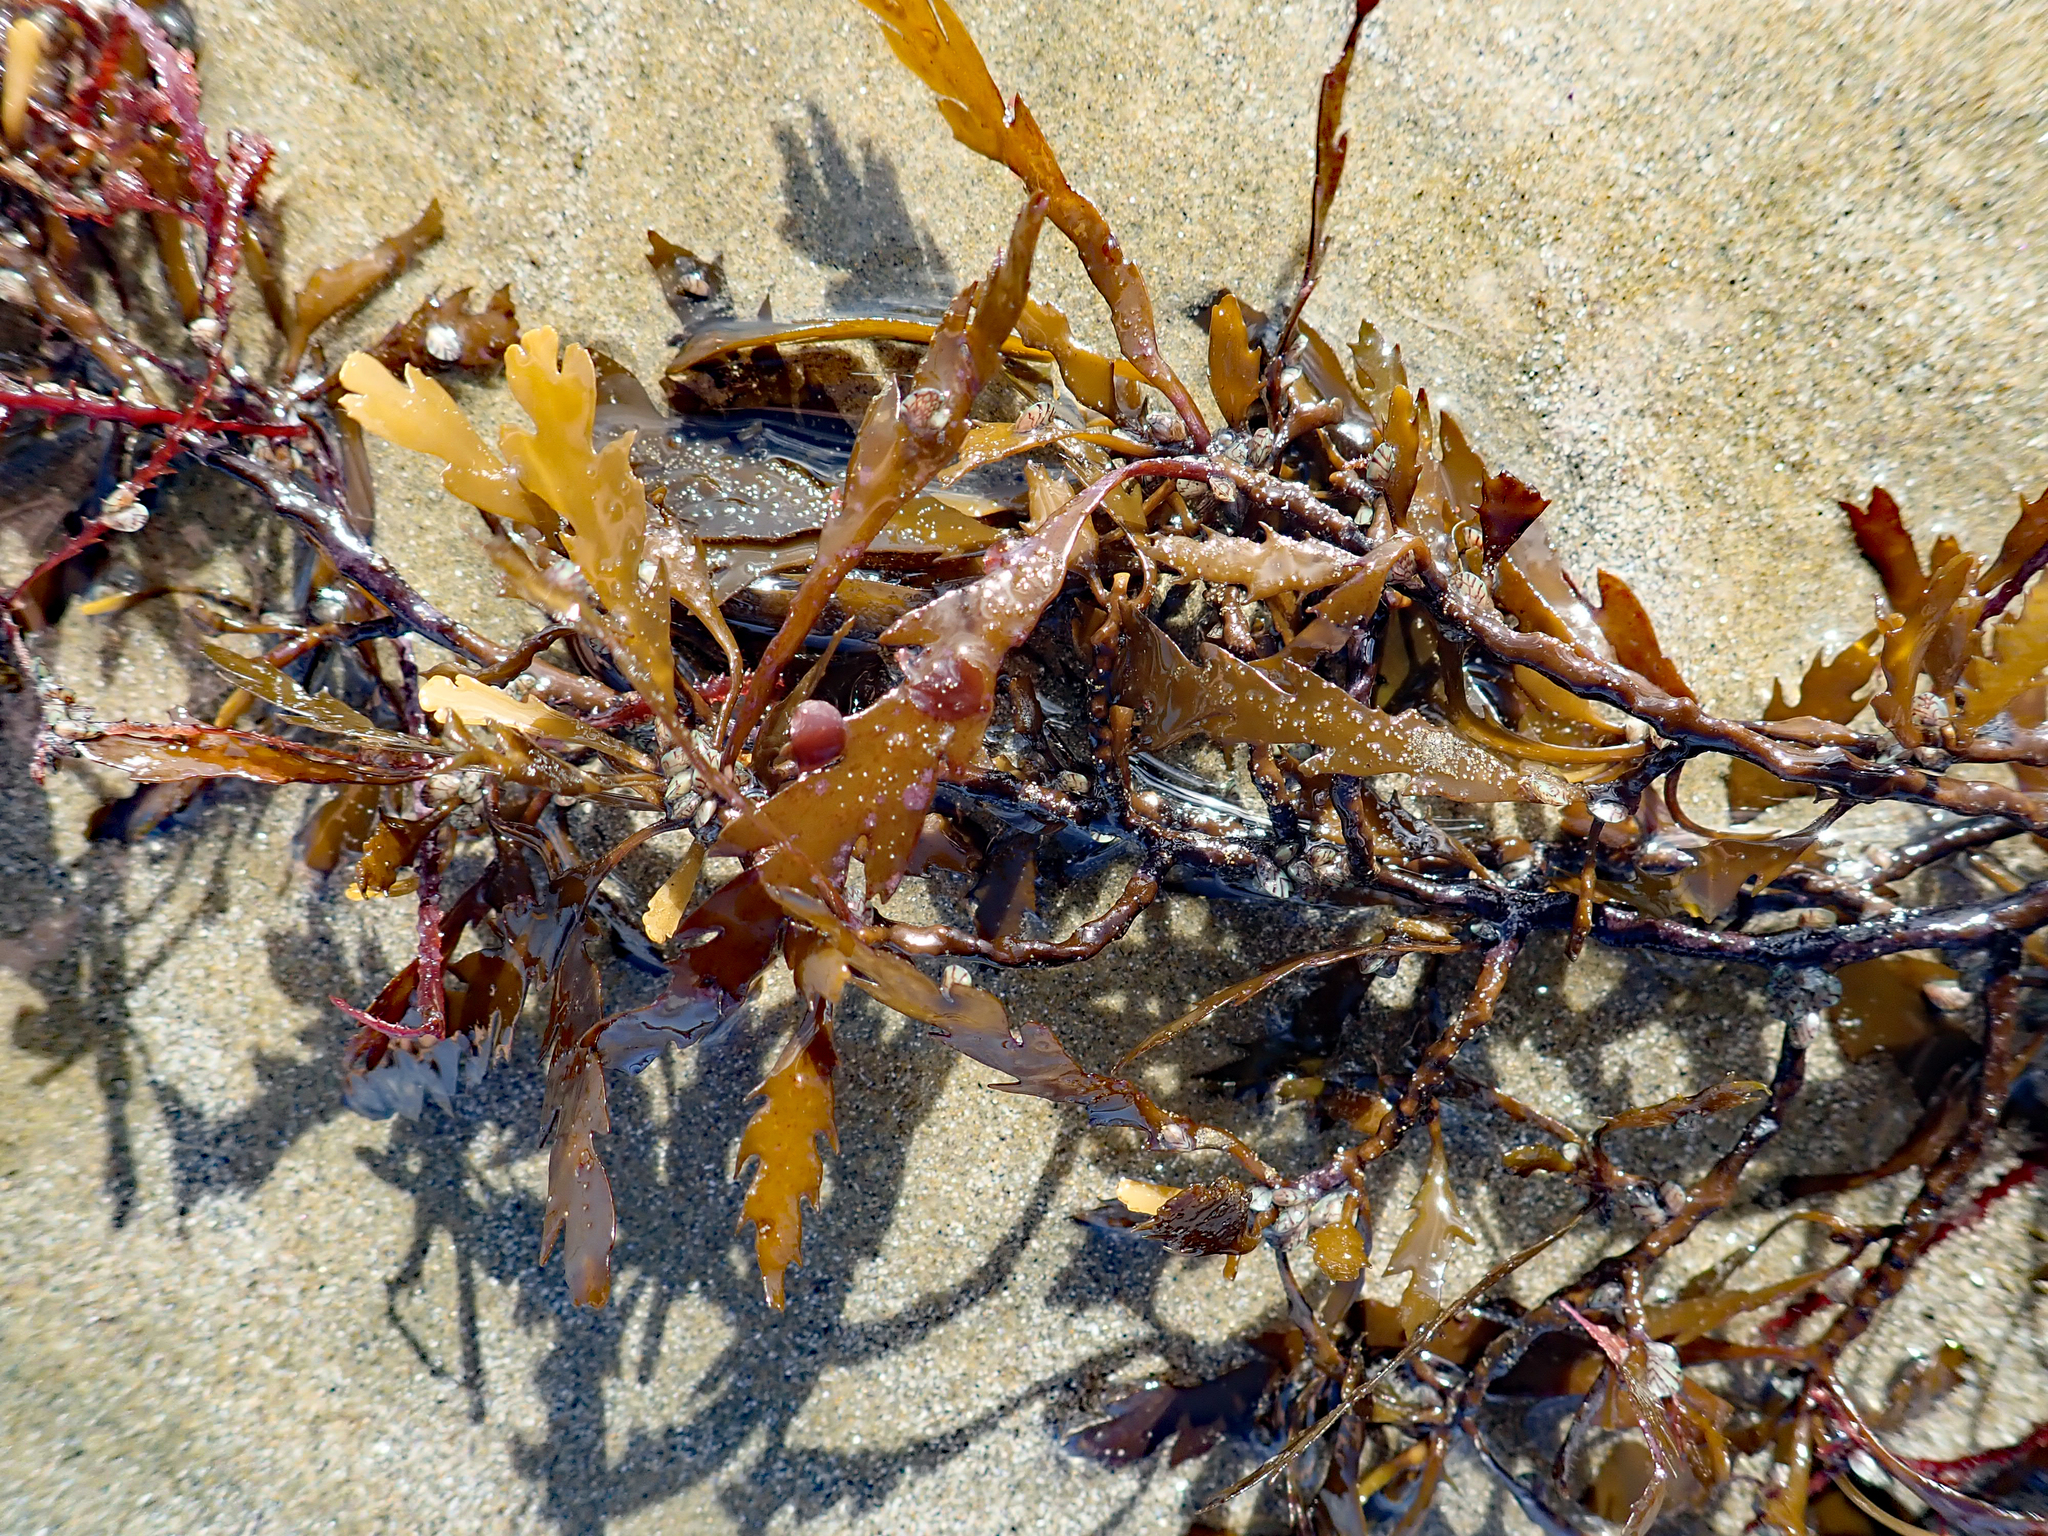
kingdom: Chromista
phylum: Ochrophyta
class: Phaeophyceae
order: Fucales
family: Sargassaceae
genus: Landsburgia
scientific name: Landsburgia quercifolia
